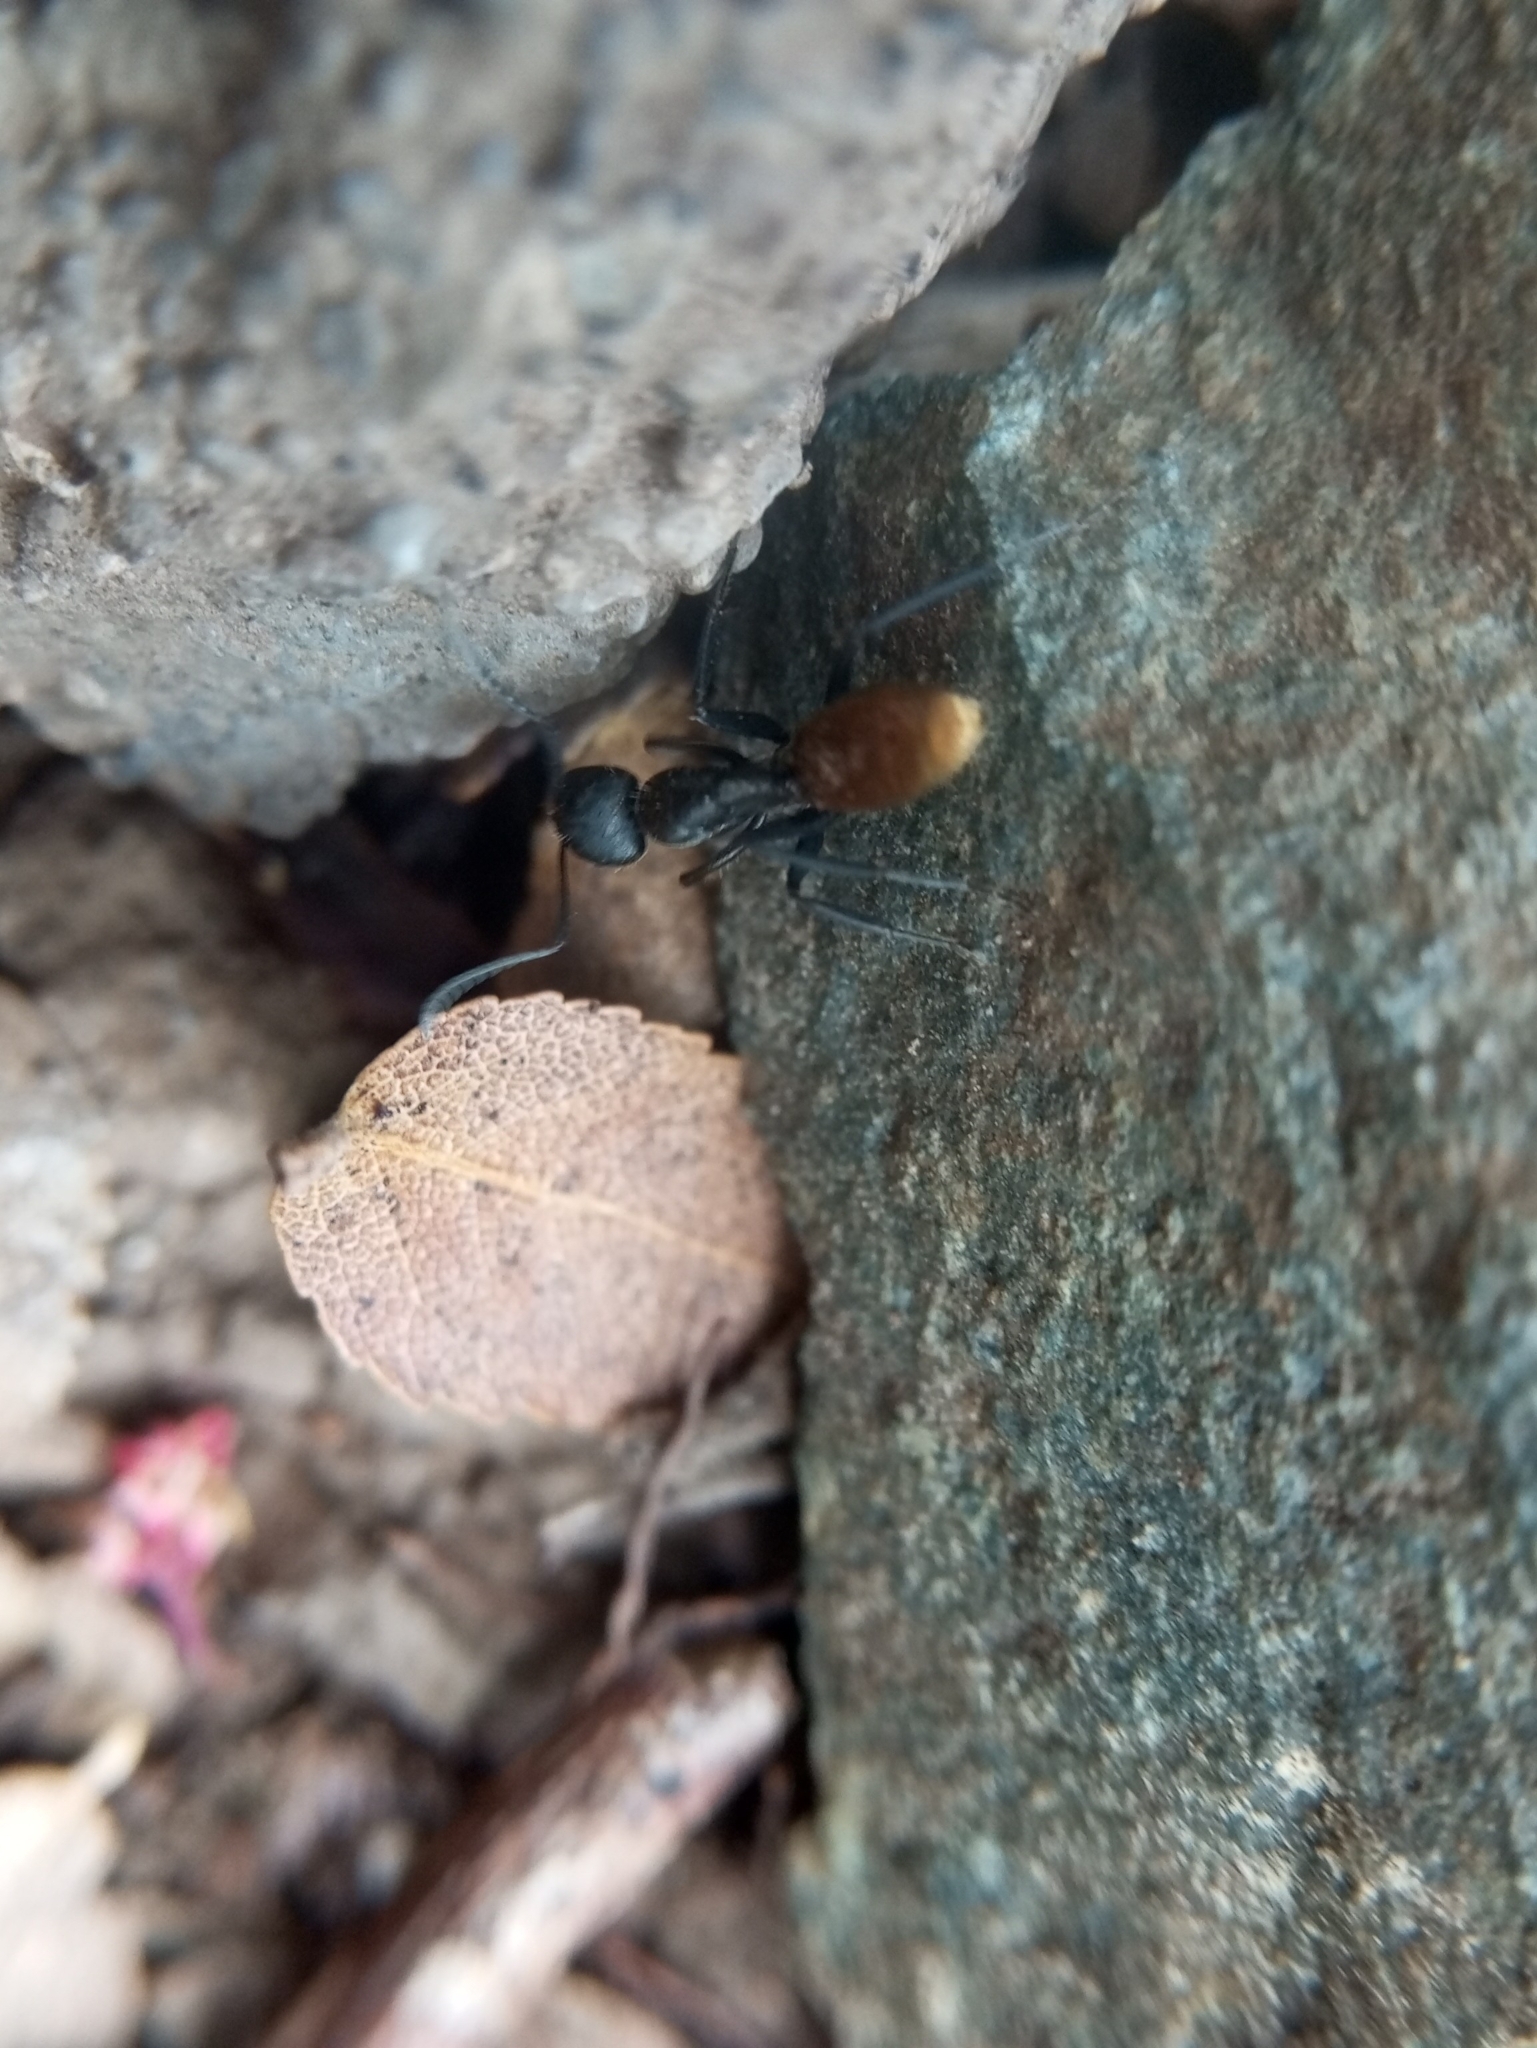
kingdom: Animalia
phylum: Arthropoda
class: Insecta
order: Hymenoptera
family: Formicidae
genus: Camponotus
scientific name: Camponotus chilensis
